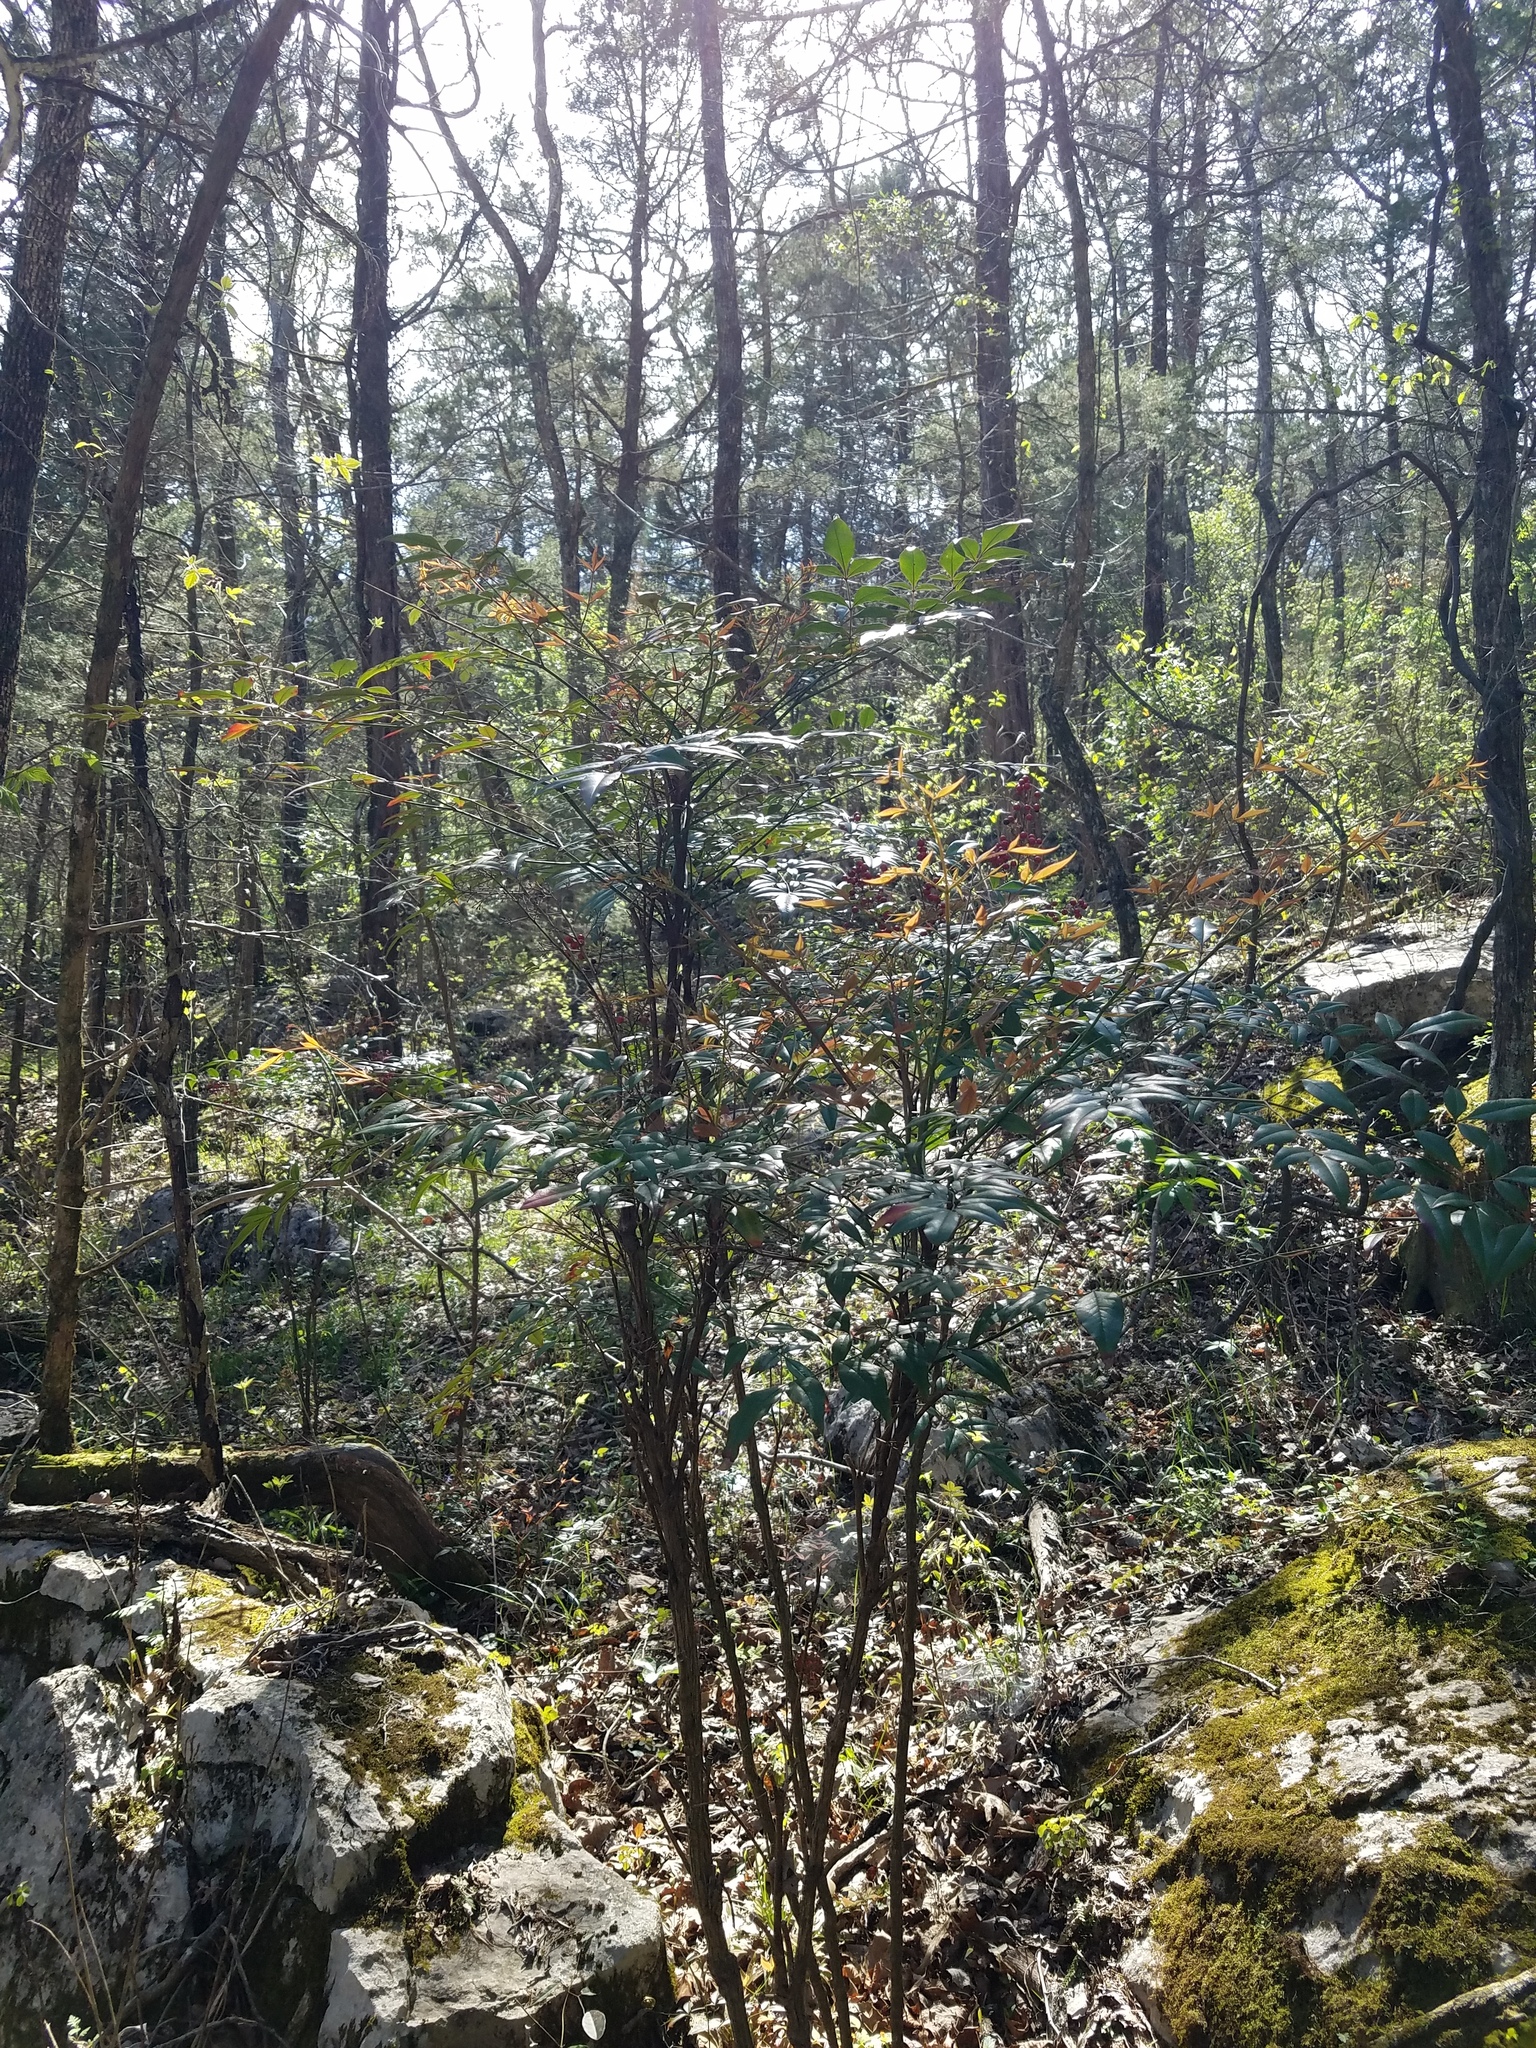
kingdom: Plantae
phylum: Tracheophyta
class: Magnoliopsida
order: Ranunculales
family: Berberidaceae
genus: Nandina
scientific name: Nandina domestica
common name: Sacred bamboo
